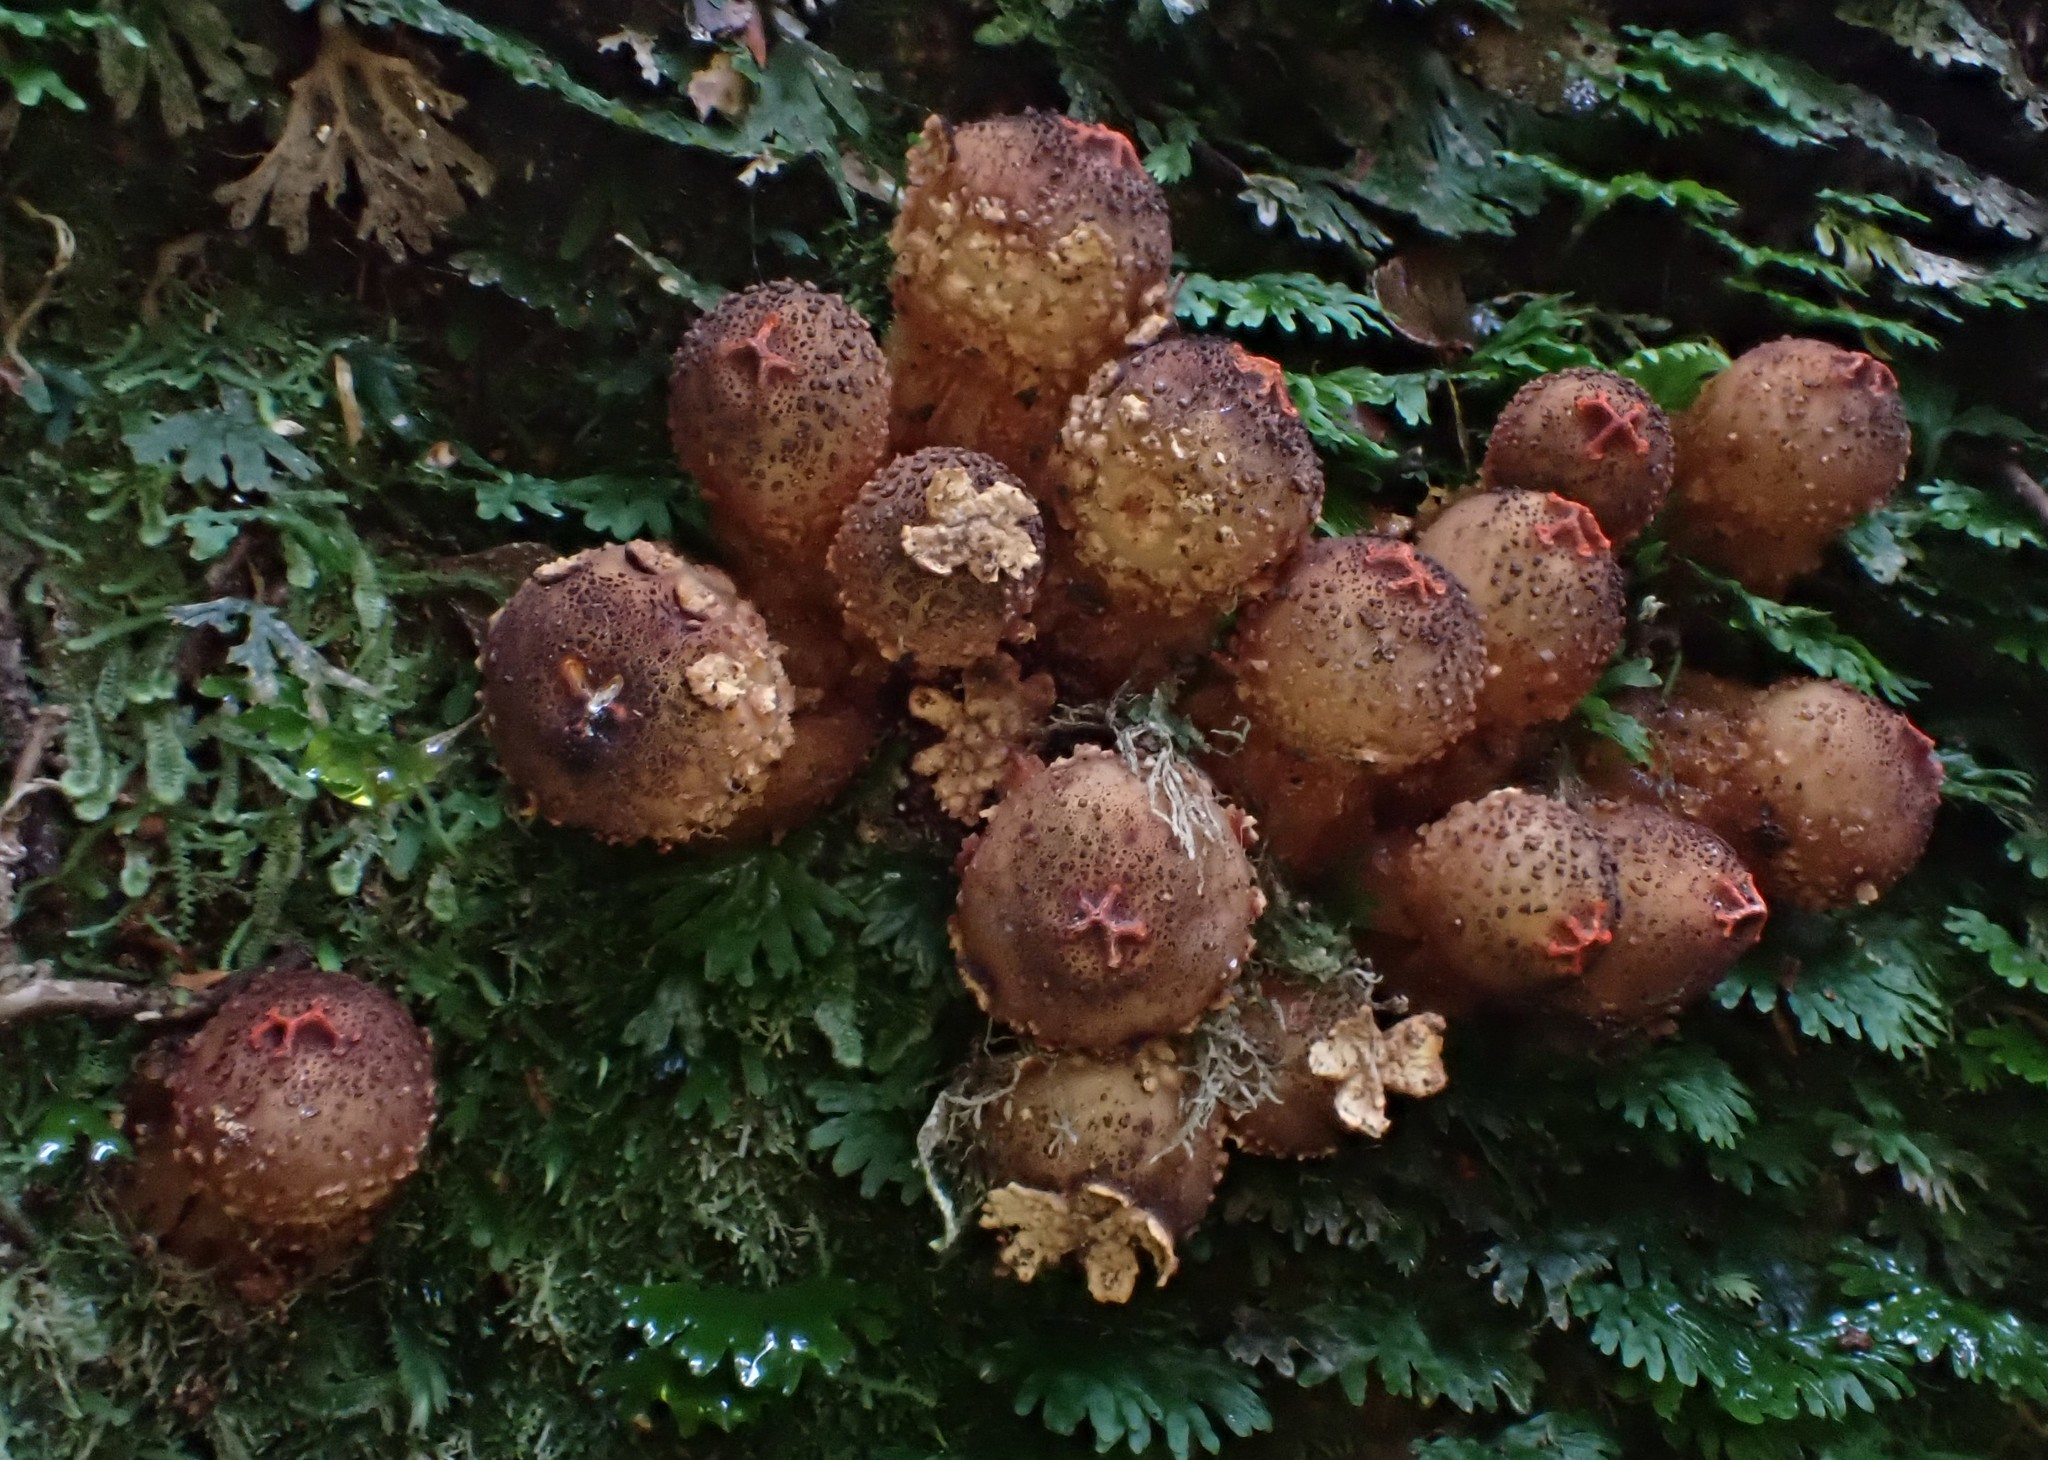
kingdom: Fungi
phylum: Basidiomycota
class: Agaricomycetes
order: Boletales
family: Calostomataceae
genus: Calostoma
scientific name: Calostoma rodwayi
